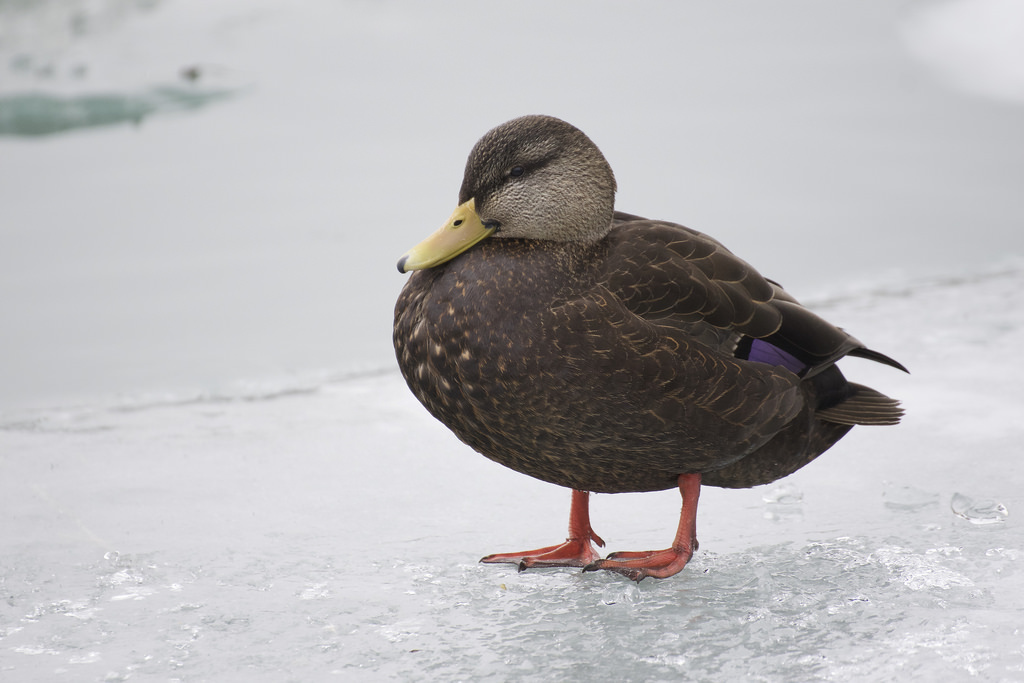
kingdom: Animalia
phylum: Chordata
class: Aves
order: Anseriformes
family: Anatidae
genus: Anas
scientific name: Anas rubripes
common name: American black duck
